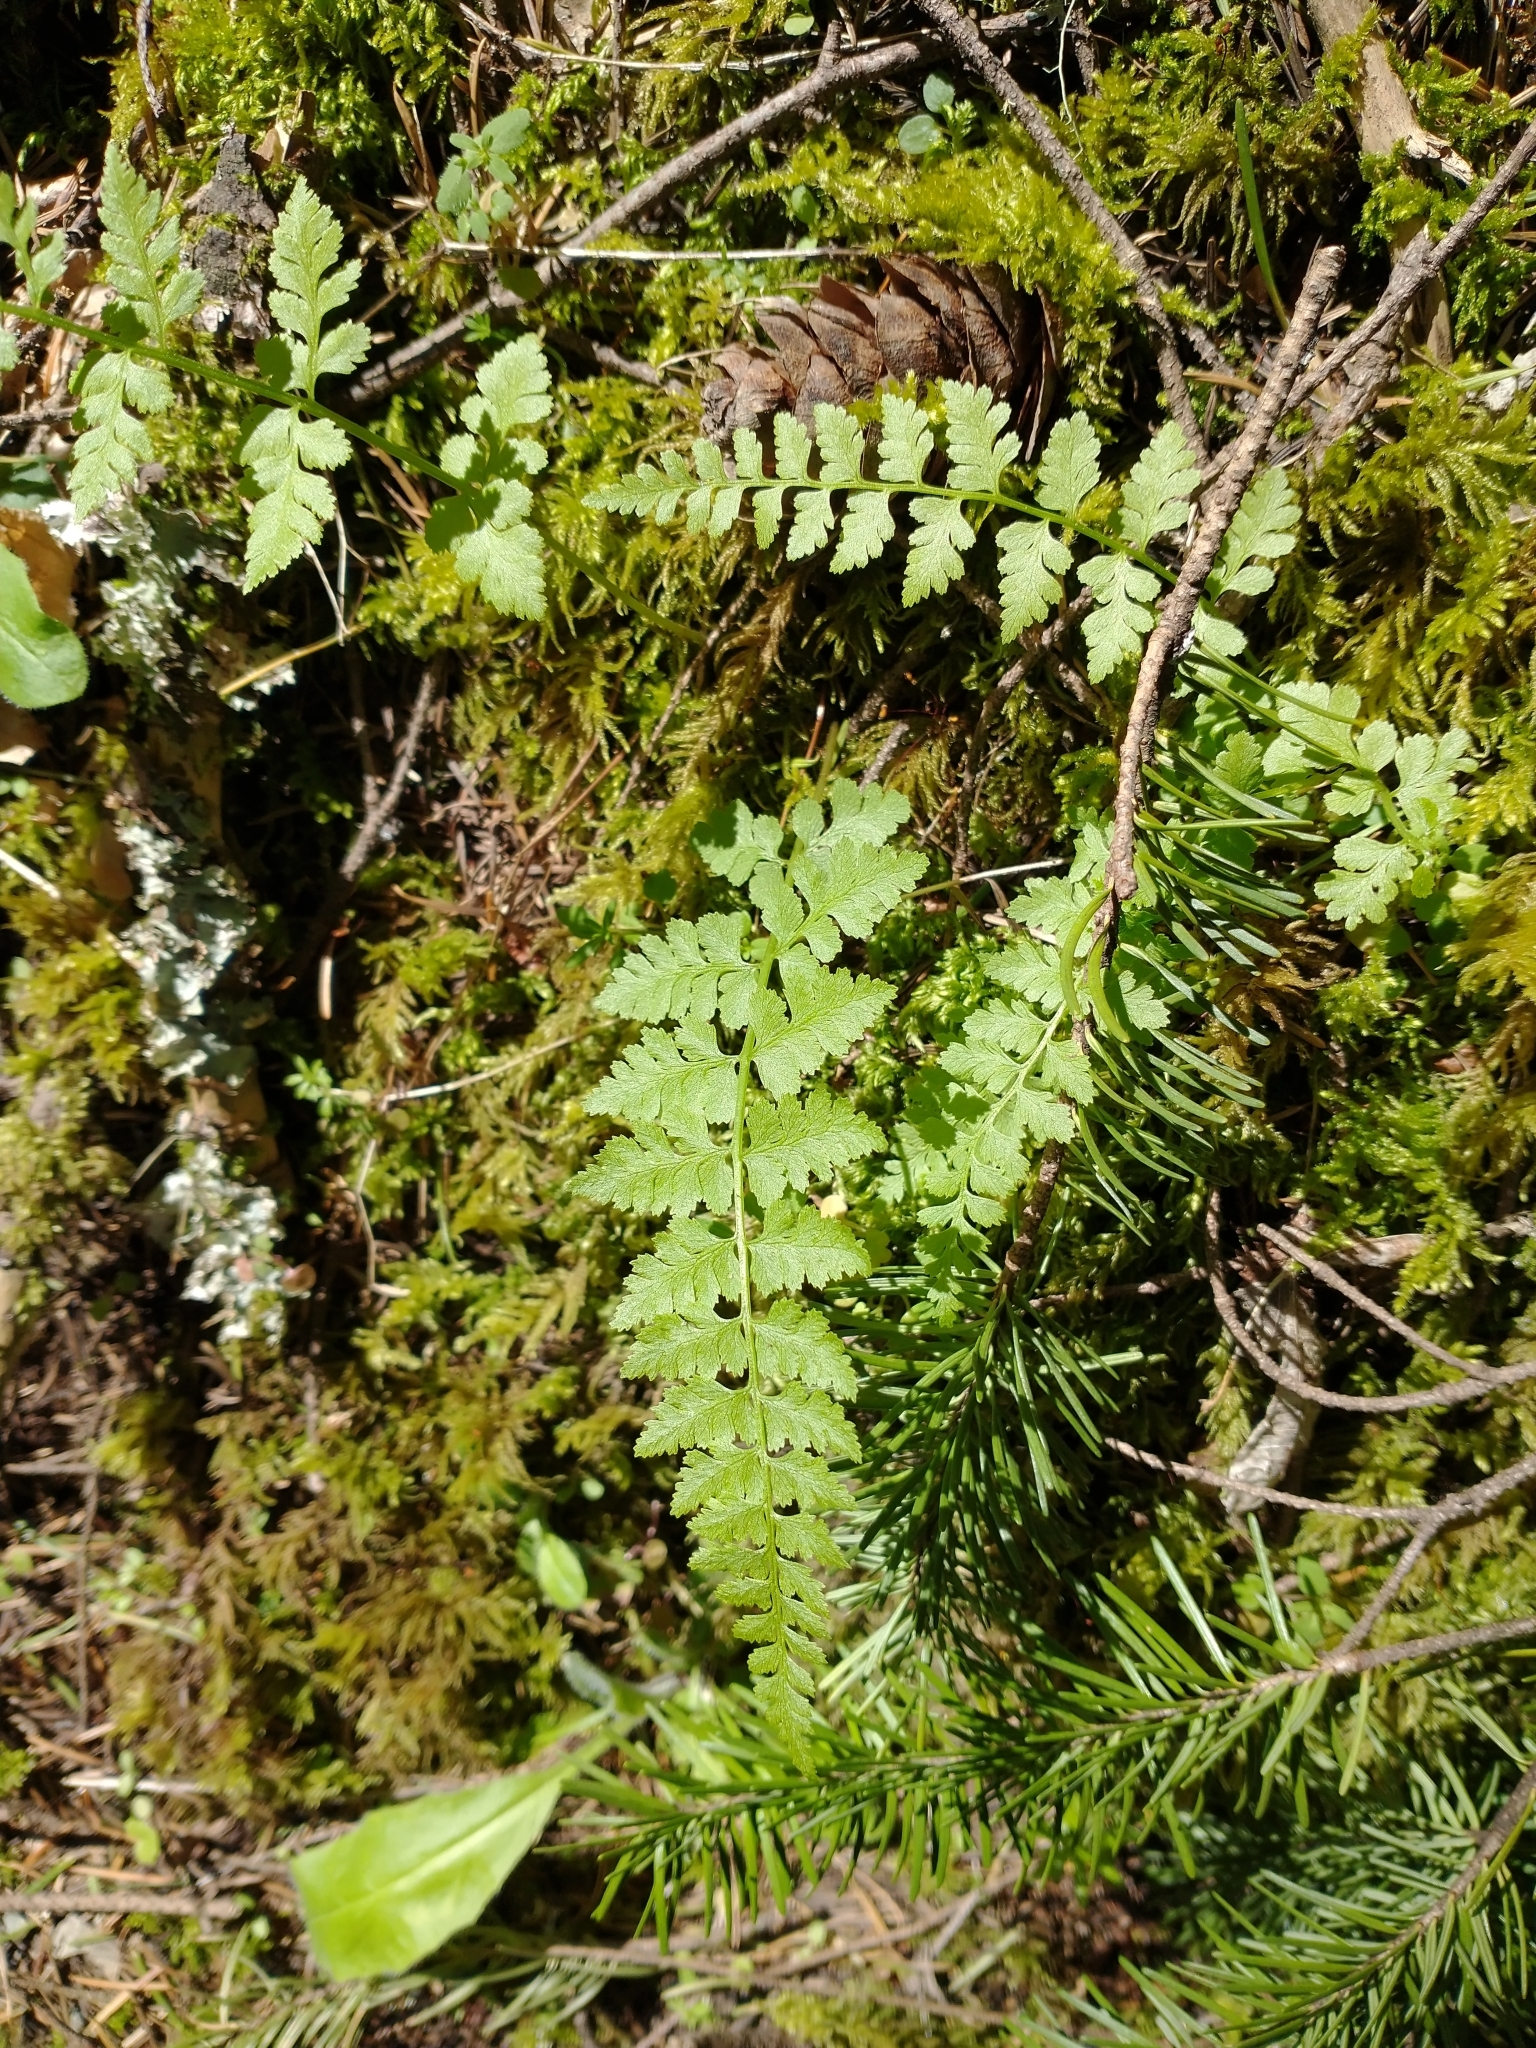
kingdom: Plantae
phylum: Tracheophyta
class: Polypodiopsida
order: Polypodiales
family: Cystopteridaceae
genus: Cystopteris
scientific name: Cystopteris fragilis
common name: Brittle bladder fern
